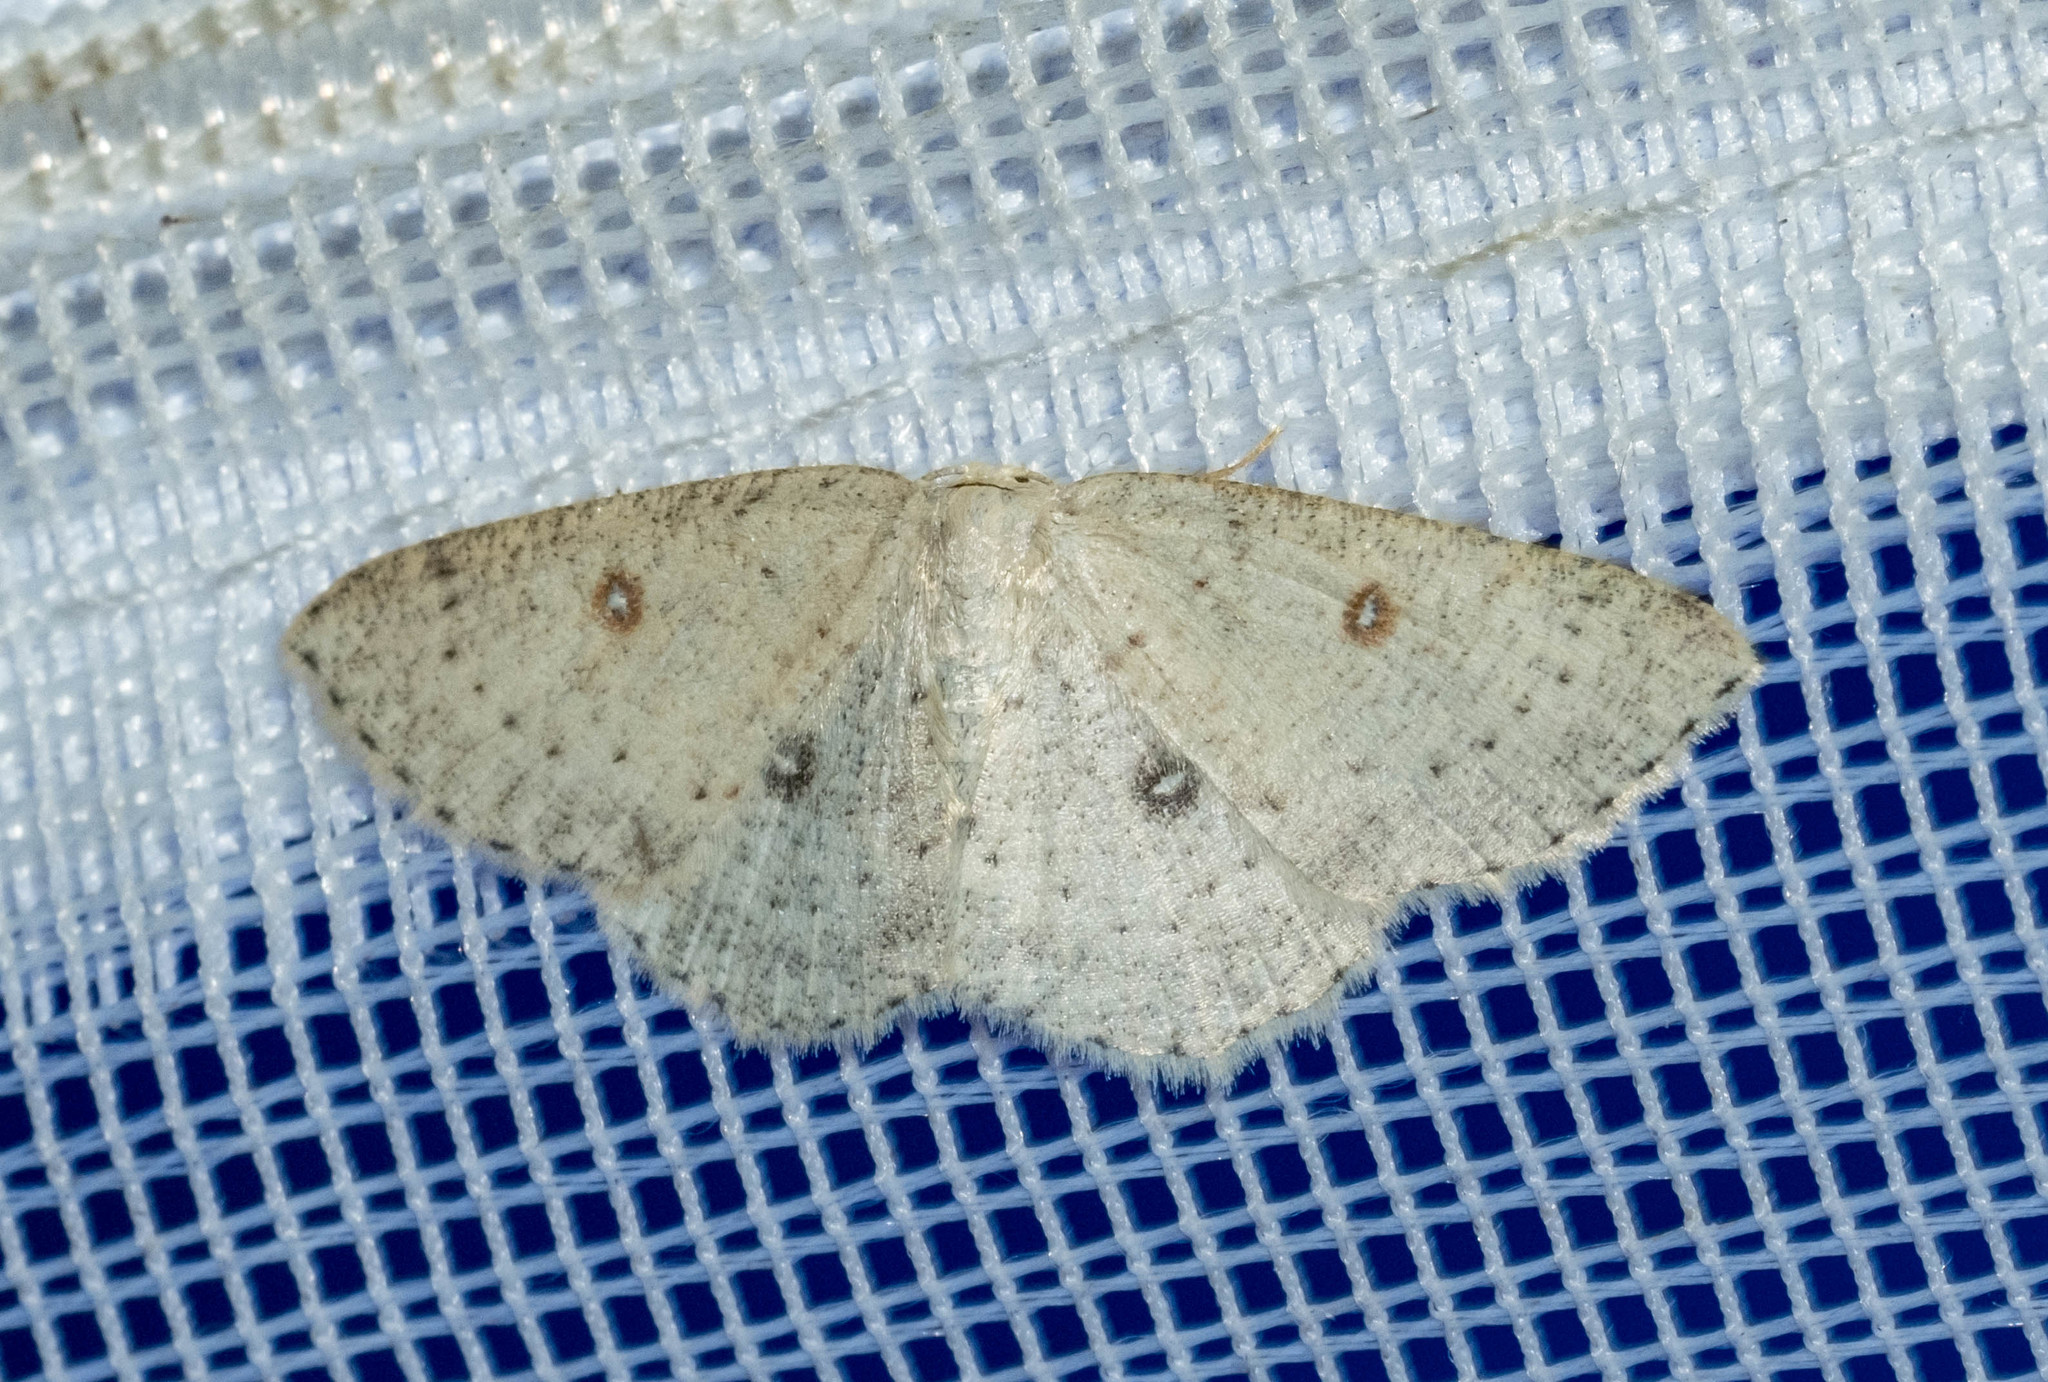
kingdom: Animalia
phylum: Arthropoda
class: Insecta
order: Lepidoptera
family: Geometridae
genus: Cyclophora
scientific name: Cyclophora albipunctata
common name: Birch mocha
